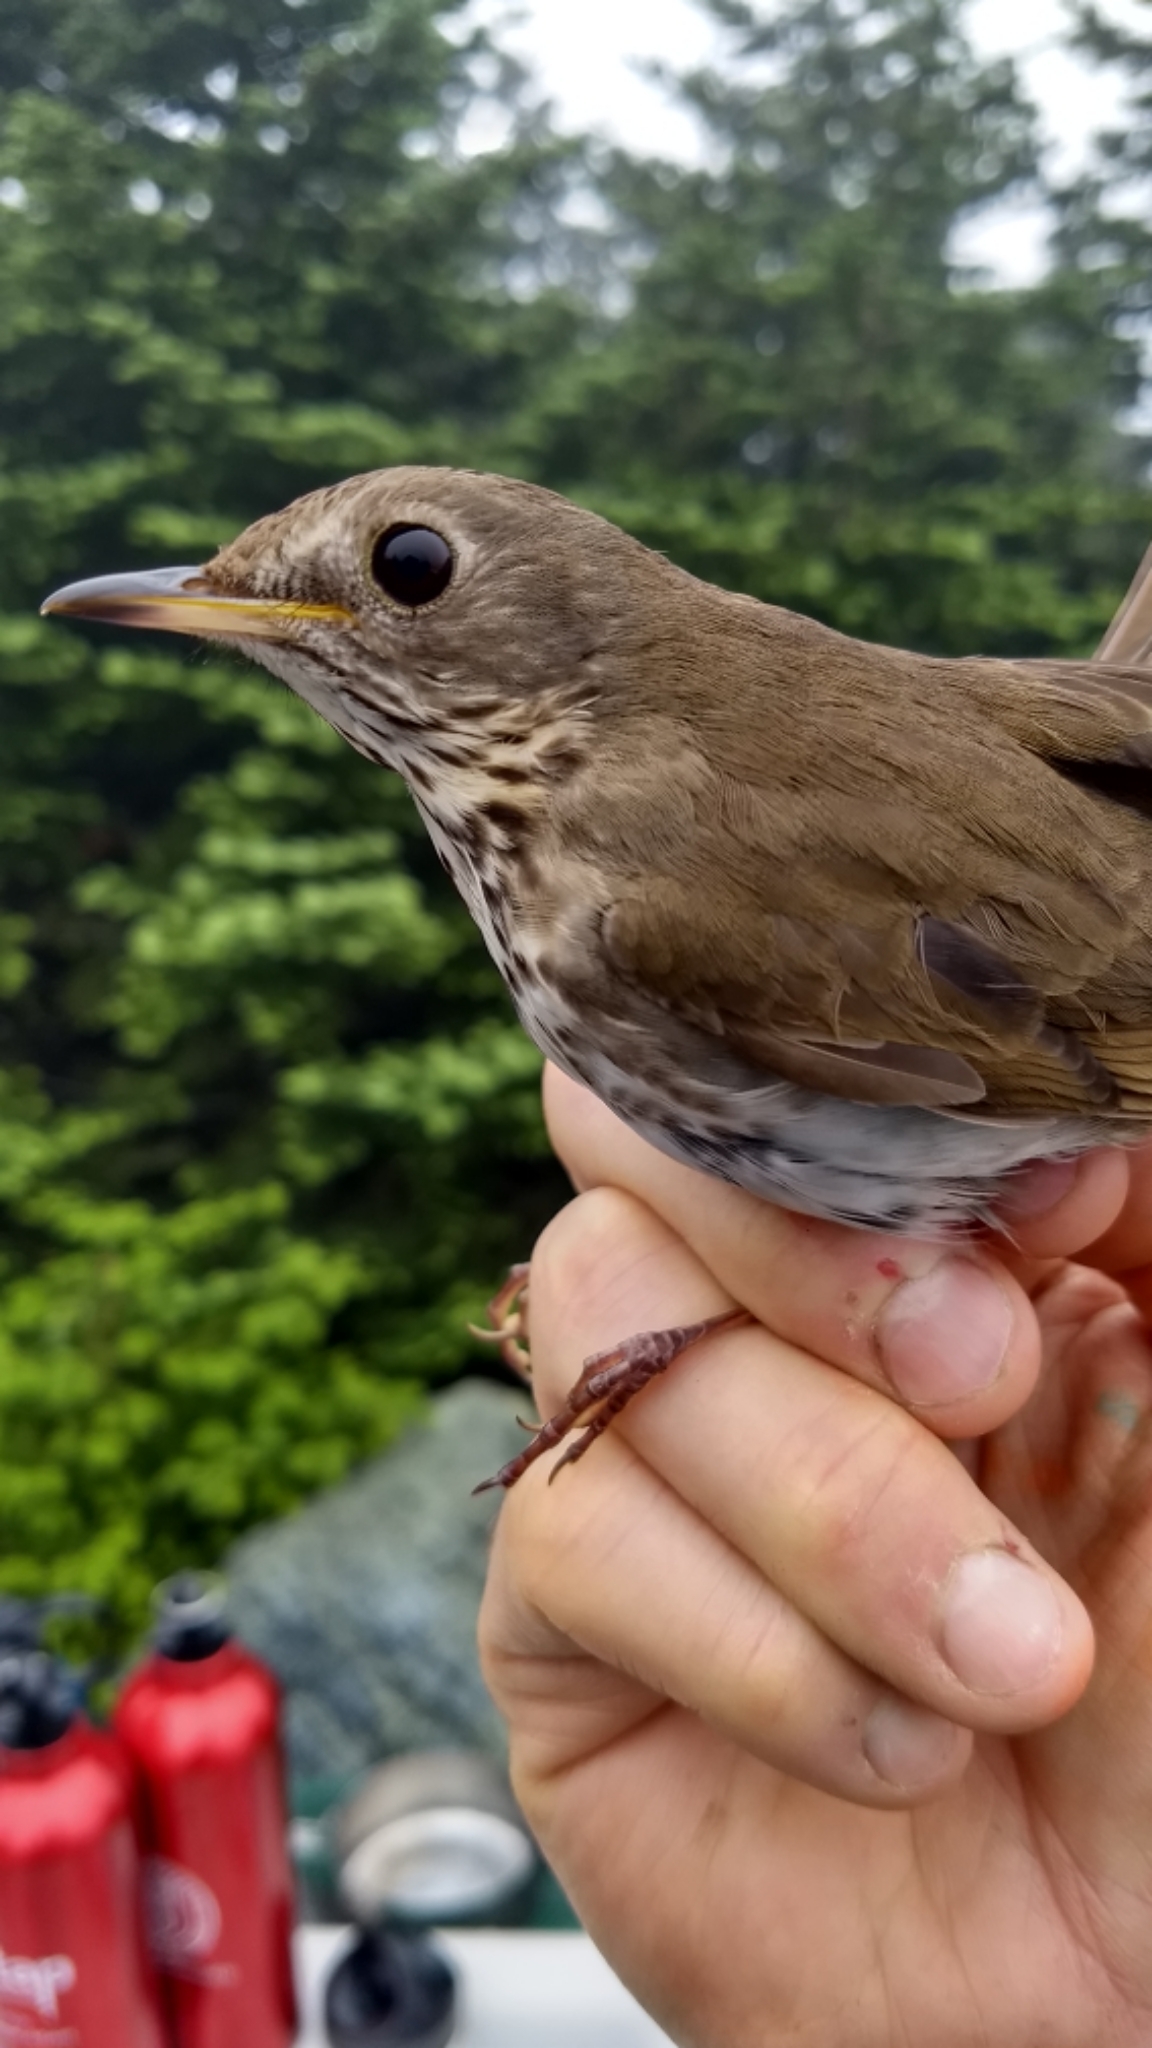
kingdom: Animalia
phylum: Chordata
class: Aves
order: Passeriformes
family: Turdidae
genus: Catharus
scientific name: Catharus bicknelli
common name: Bicknell's thrush
